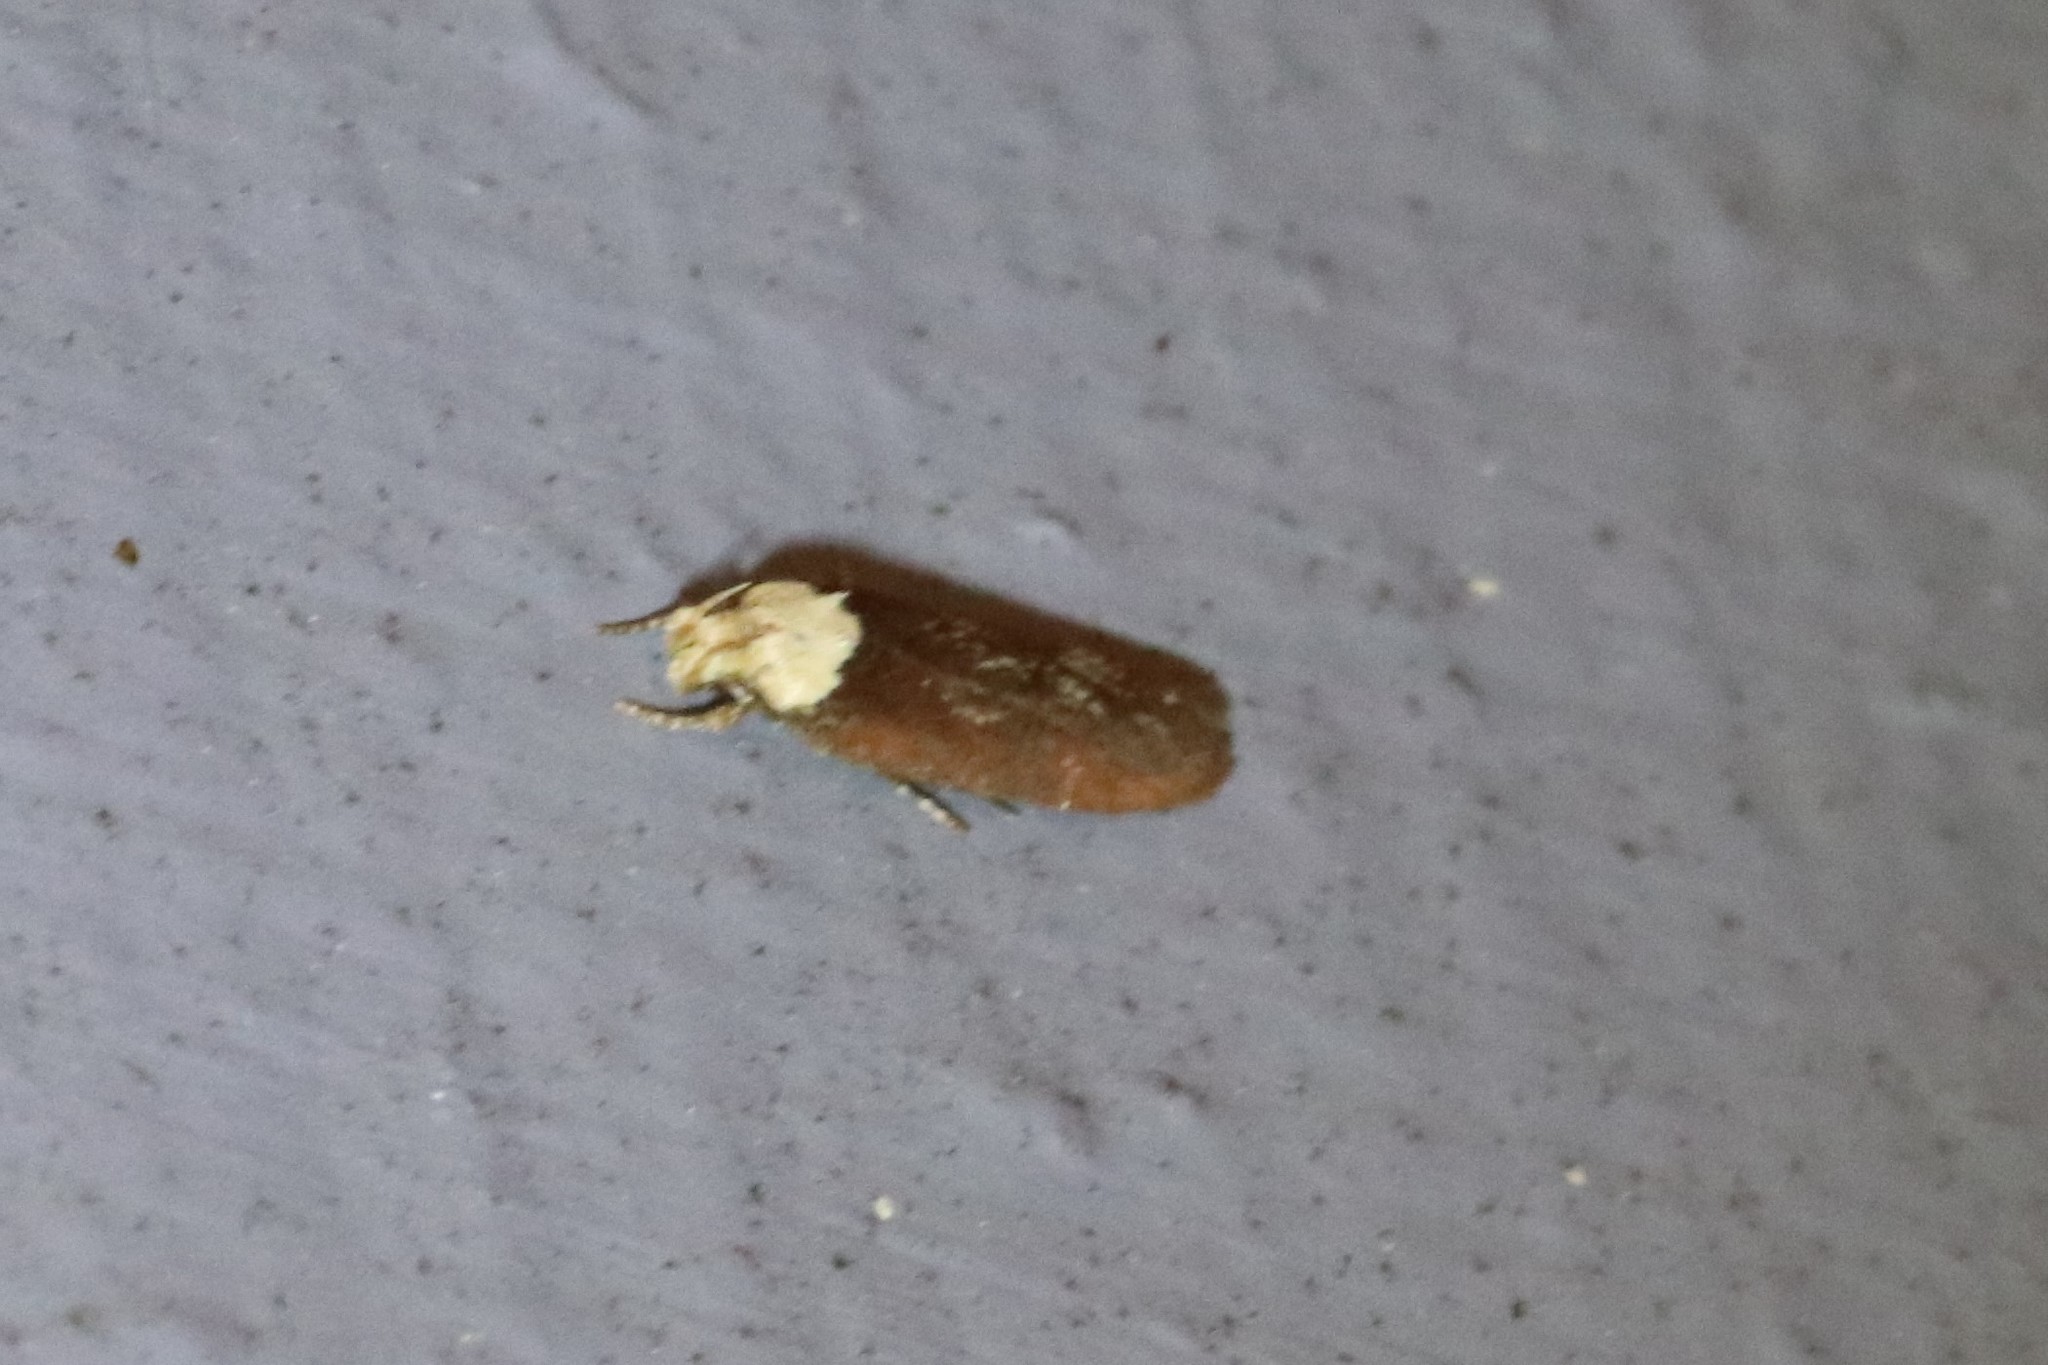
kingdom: Animalia
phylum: Arthropoda
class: Insecta
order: Lepidoptera
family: Depressariidae
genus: Depressaria
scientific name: Depressaria depressana
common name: Lost flat-body
